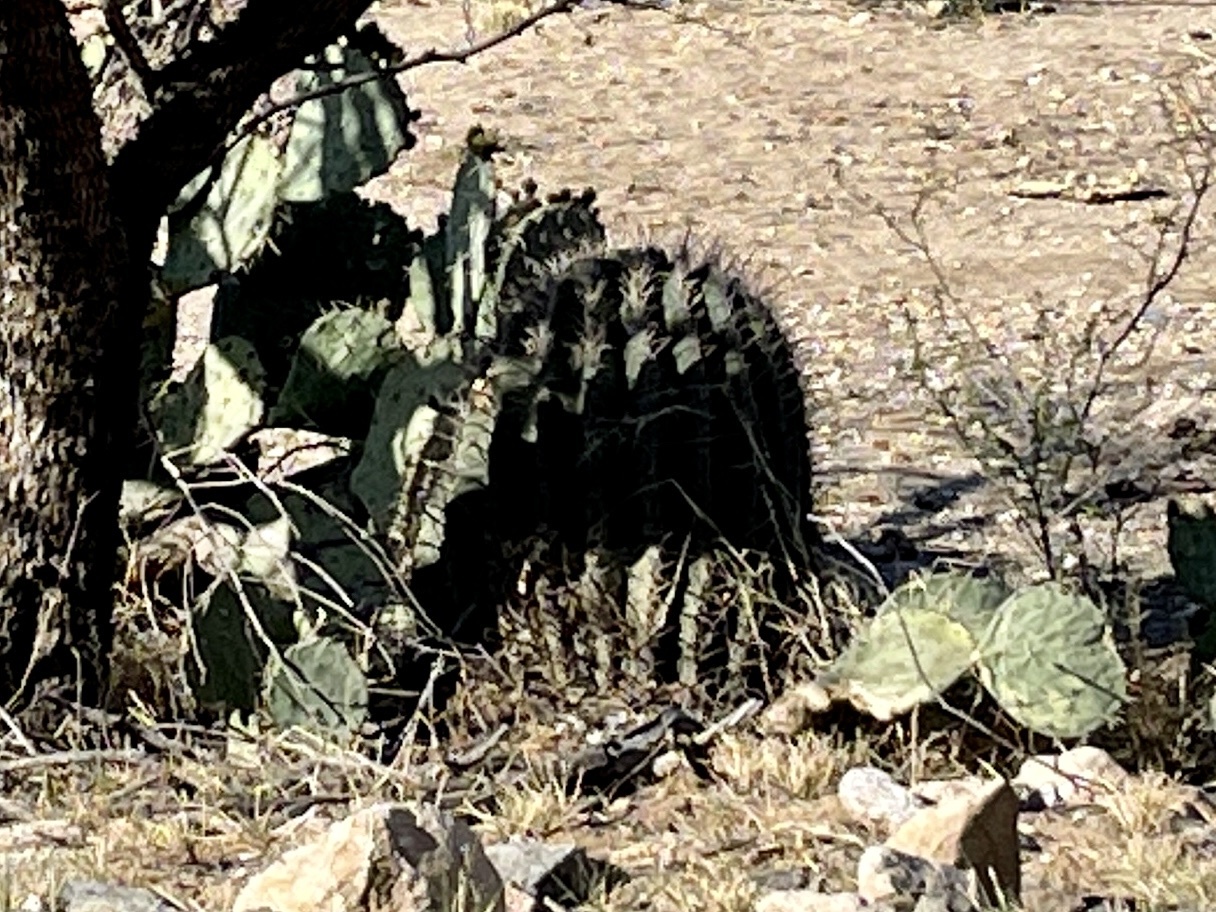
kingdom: Plantae
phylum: Tracheophyta
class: Magnoliopsida
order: Caryophyllales
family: Cactaceae
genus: Ferocactus
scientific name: Ferocactus wislizeni
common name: Candy barrel cactus
